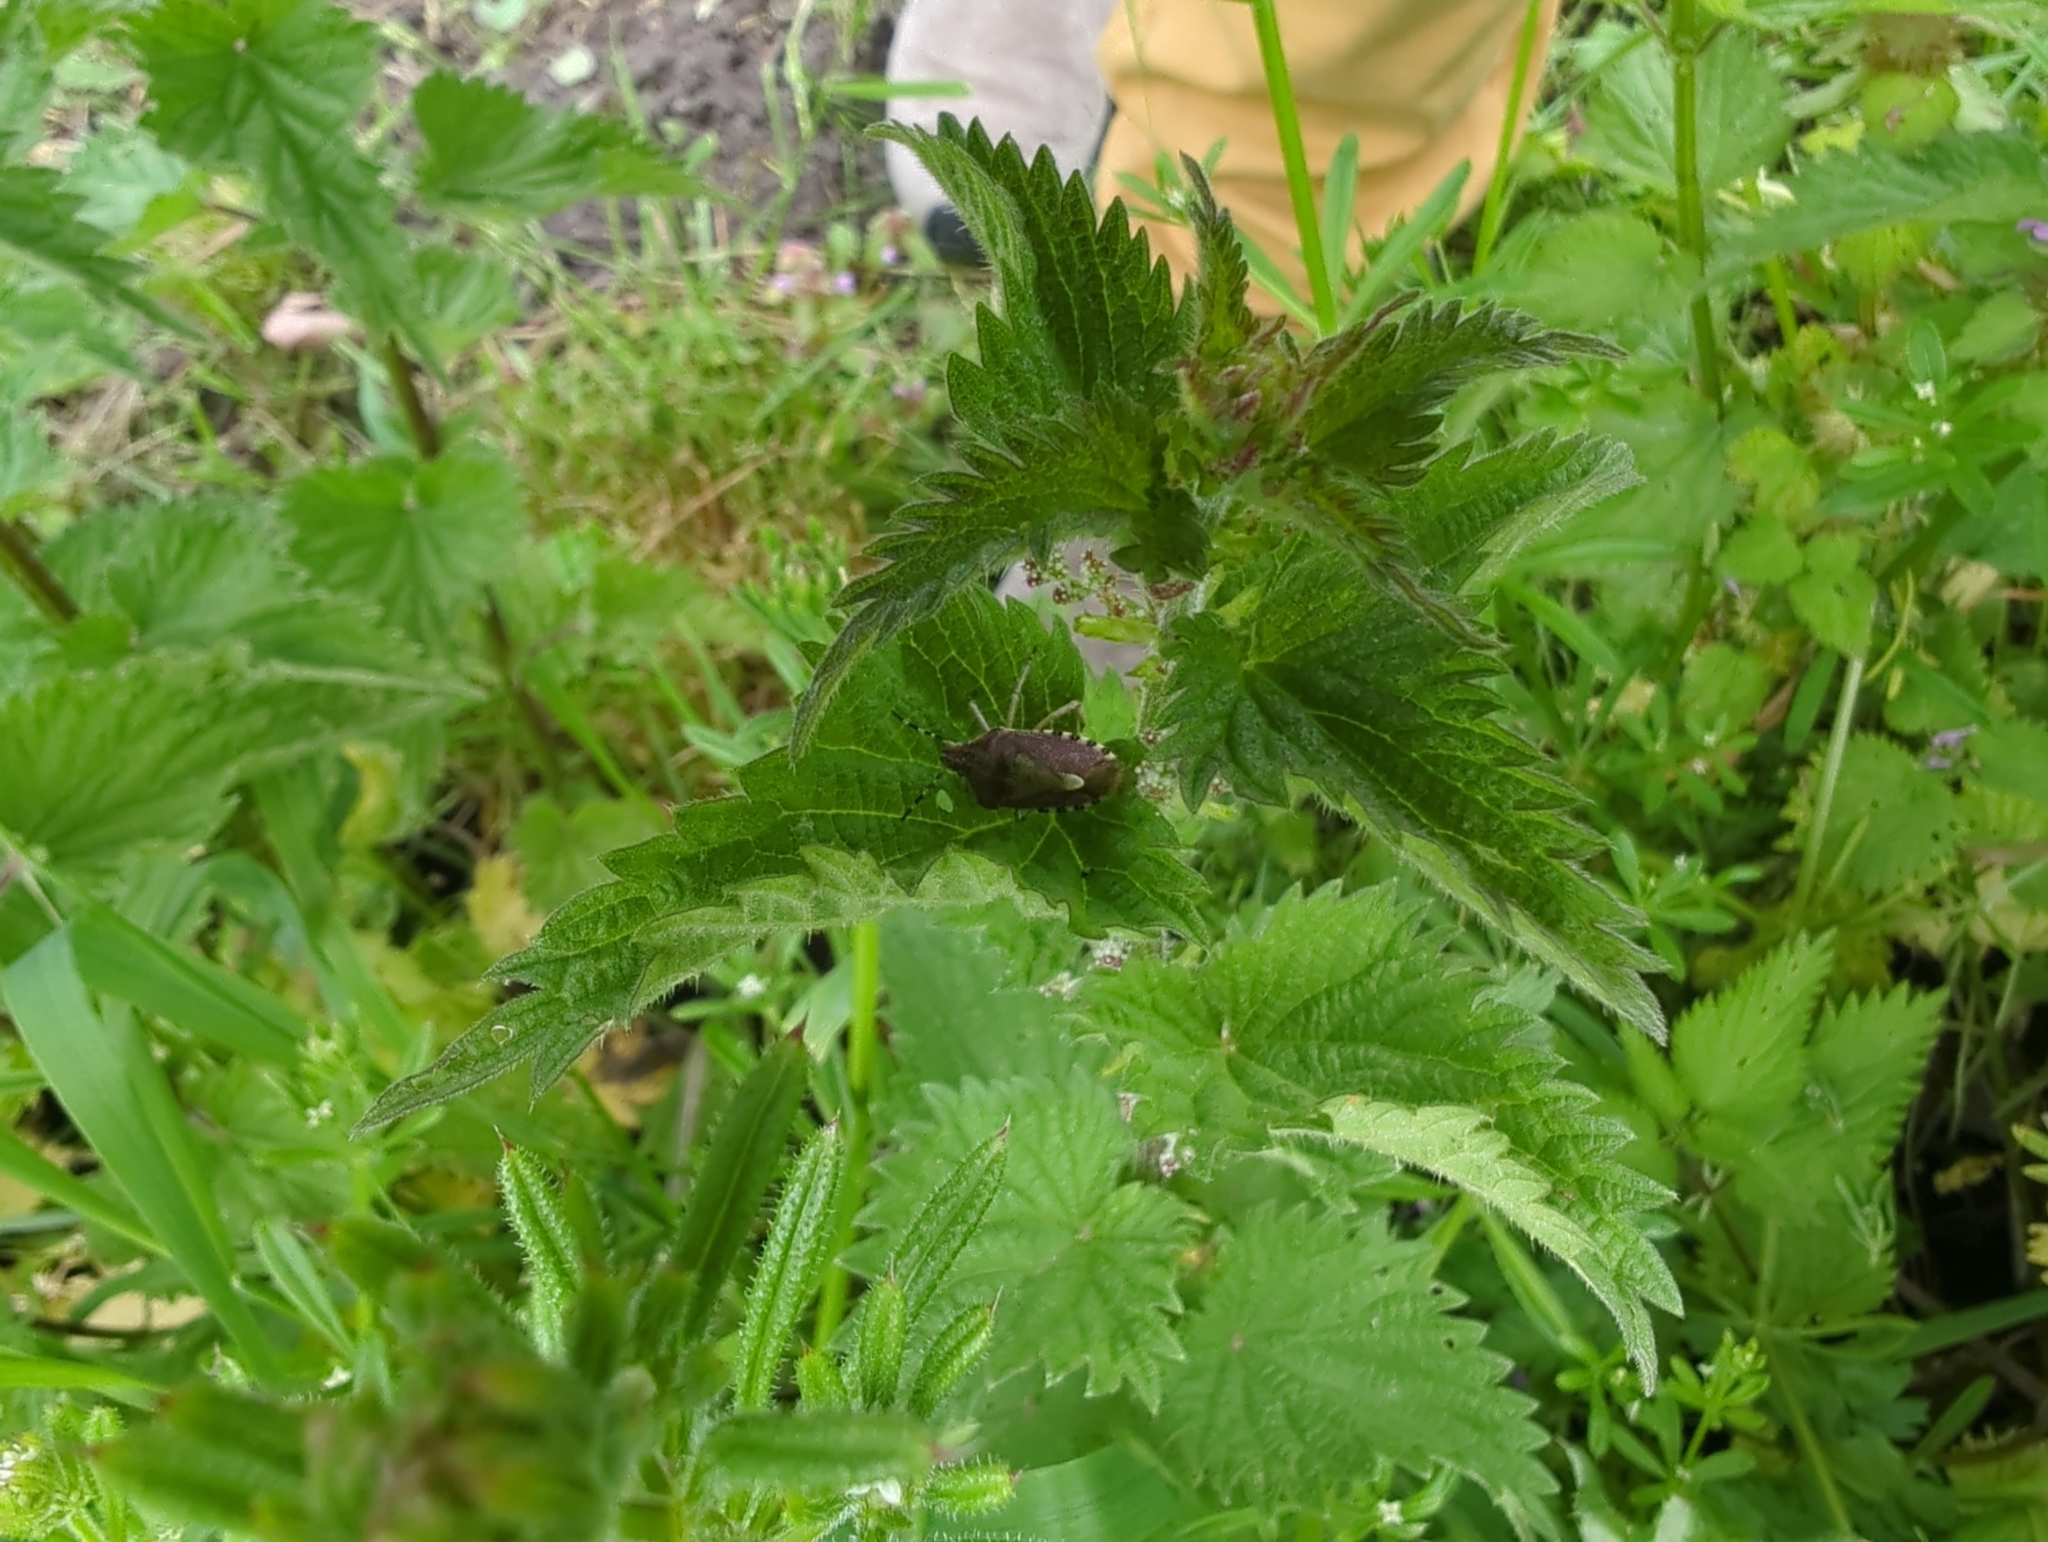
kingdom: Animalia
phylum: Arthropoda
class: Insecta
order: Hemiptera
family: Pentatomidae
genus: Dolycoris
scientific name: Dolycoris baccarum
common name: Sloe bug
